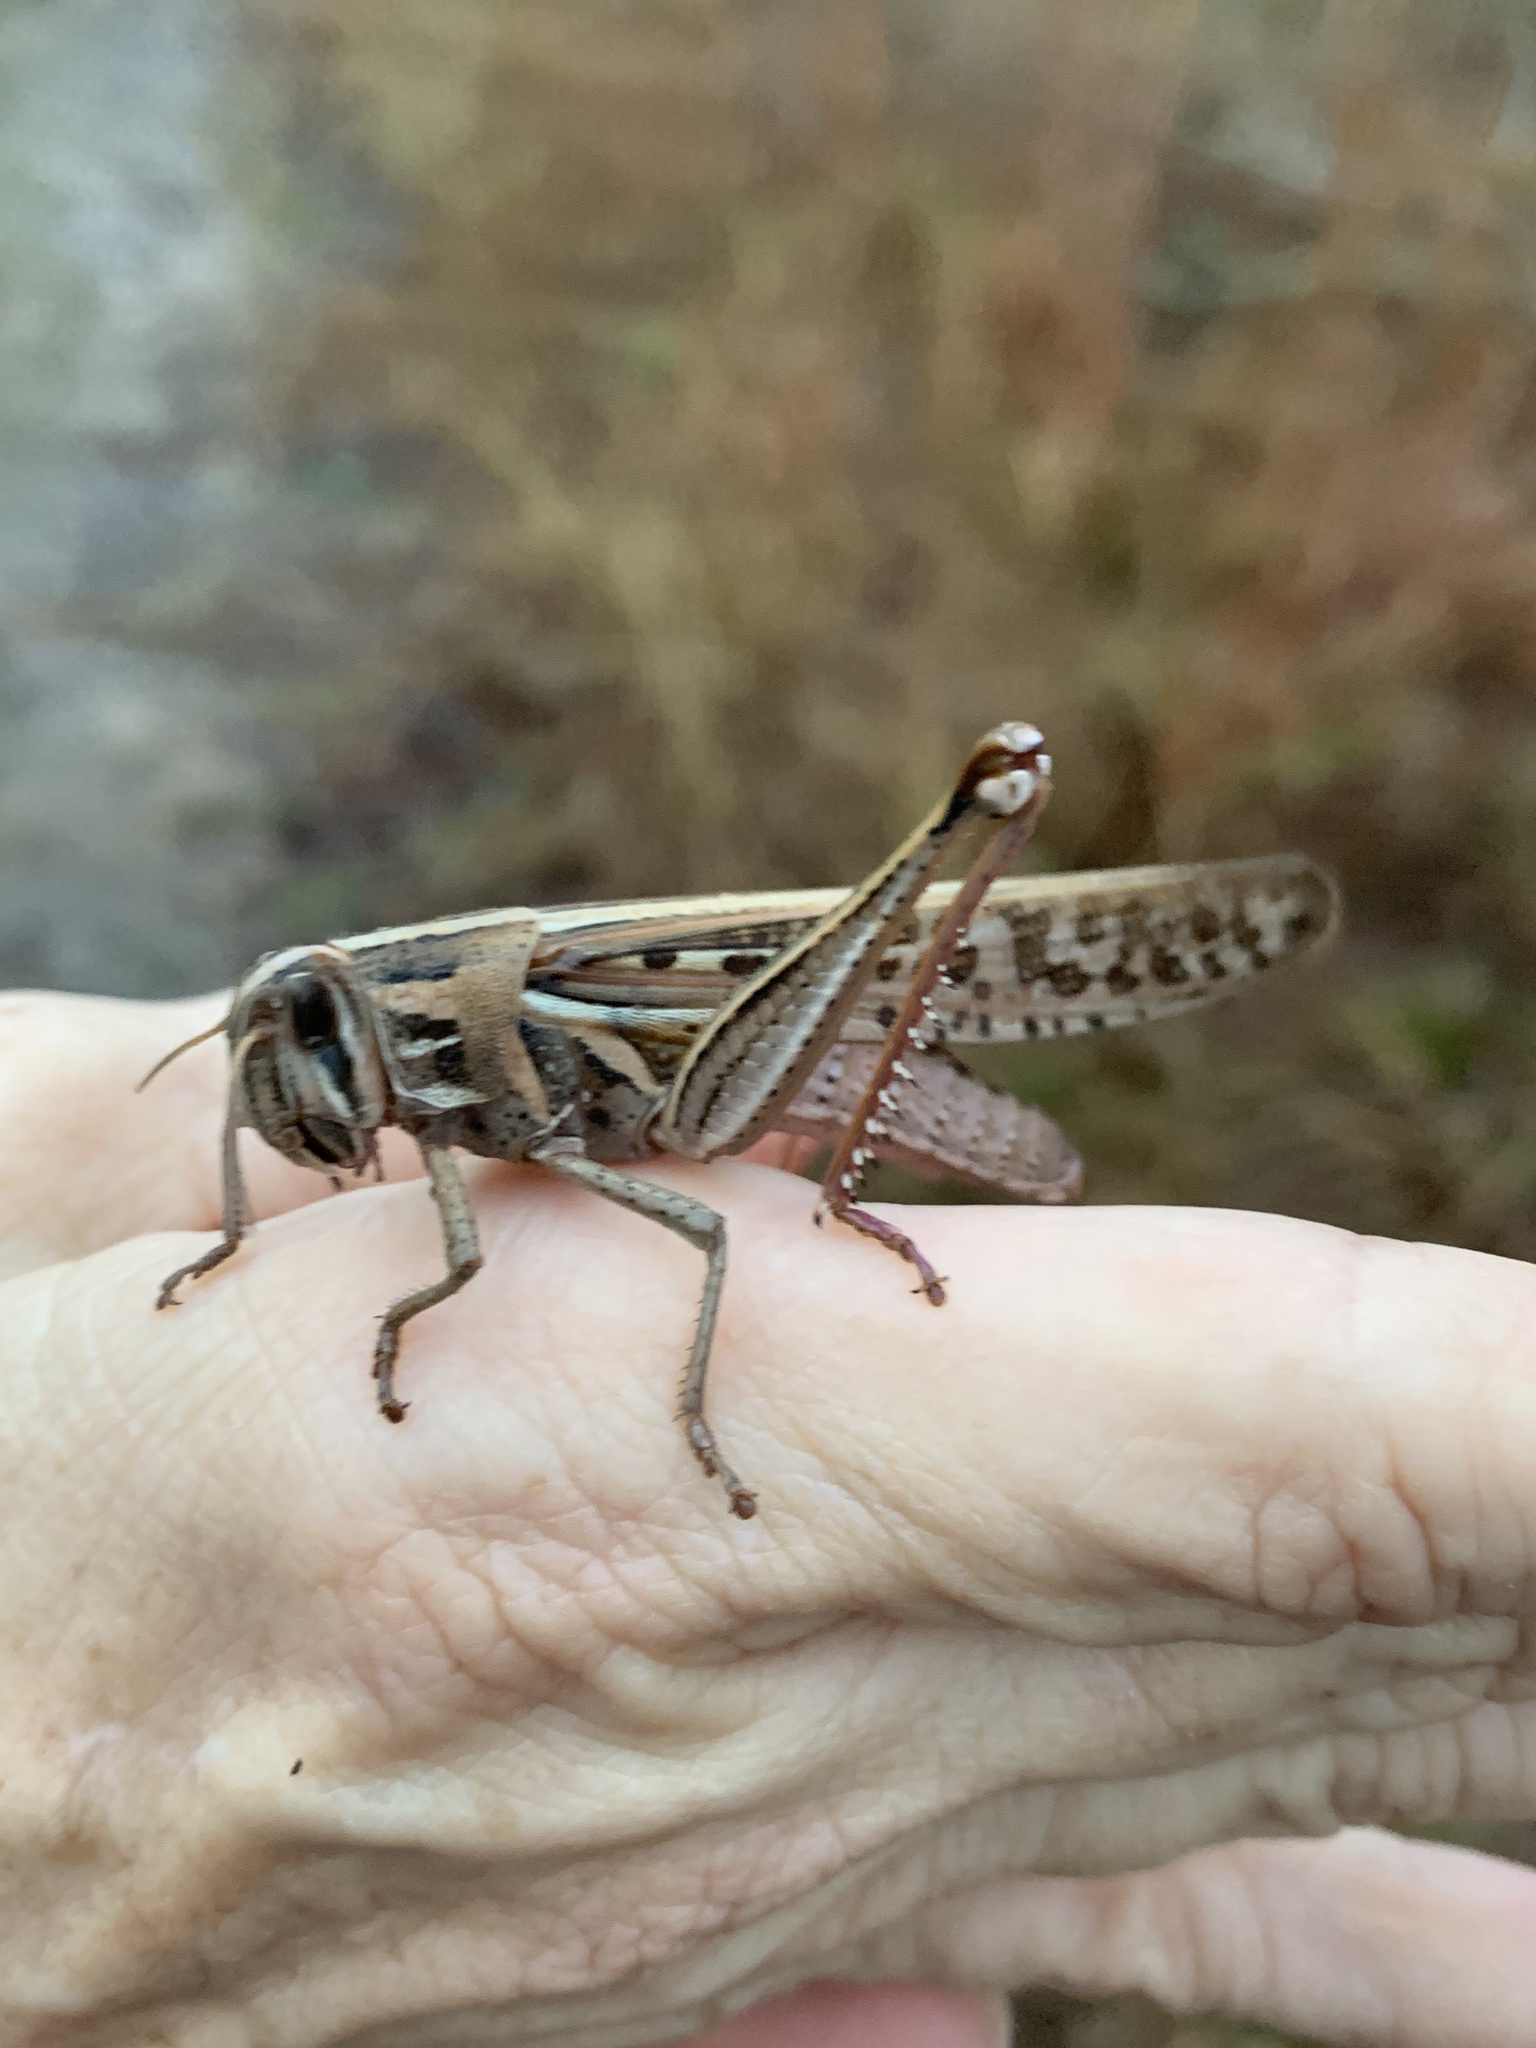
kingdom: Animalia
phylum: Arthropoda
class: Insecta
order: Orthoptera
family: Acrididae
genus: Schistocerca
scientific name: Schistocerca americana
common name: American bird locust
